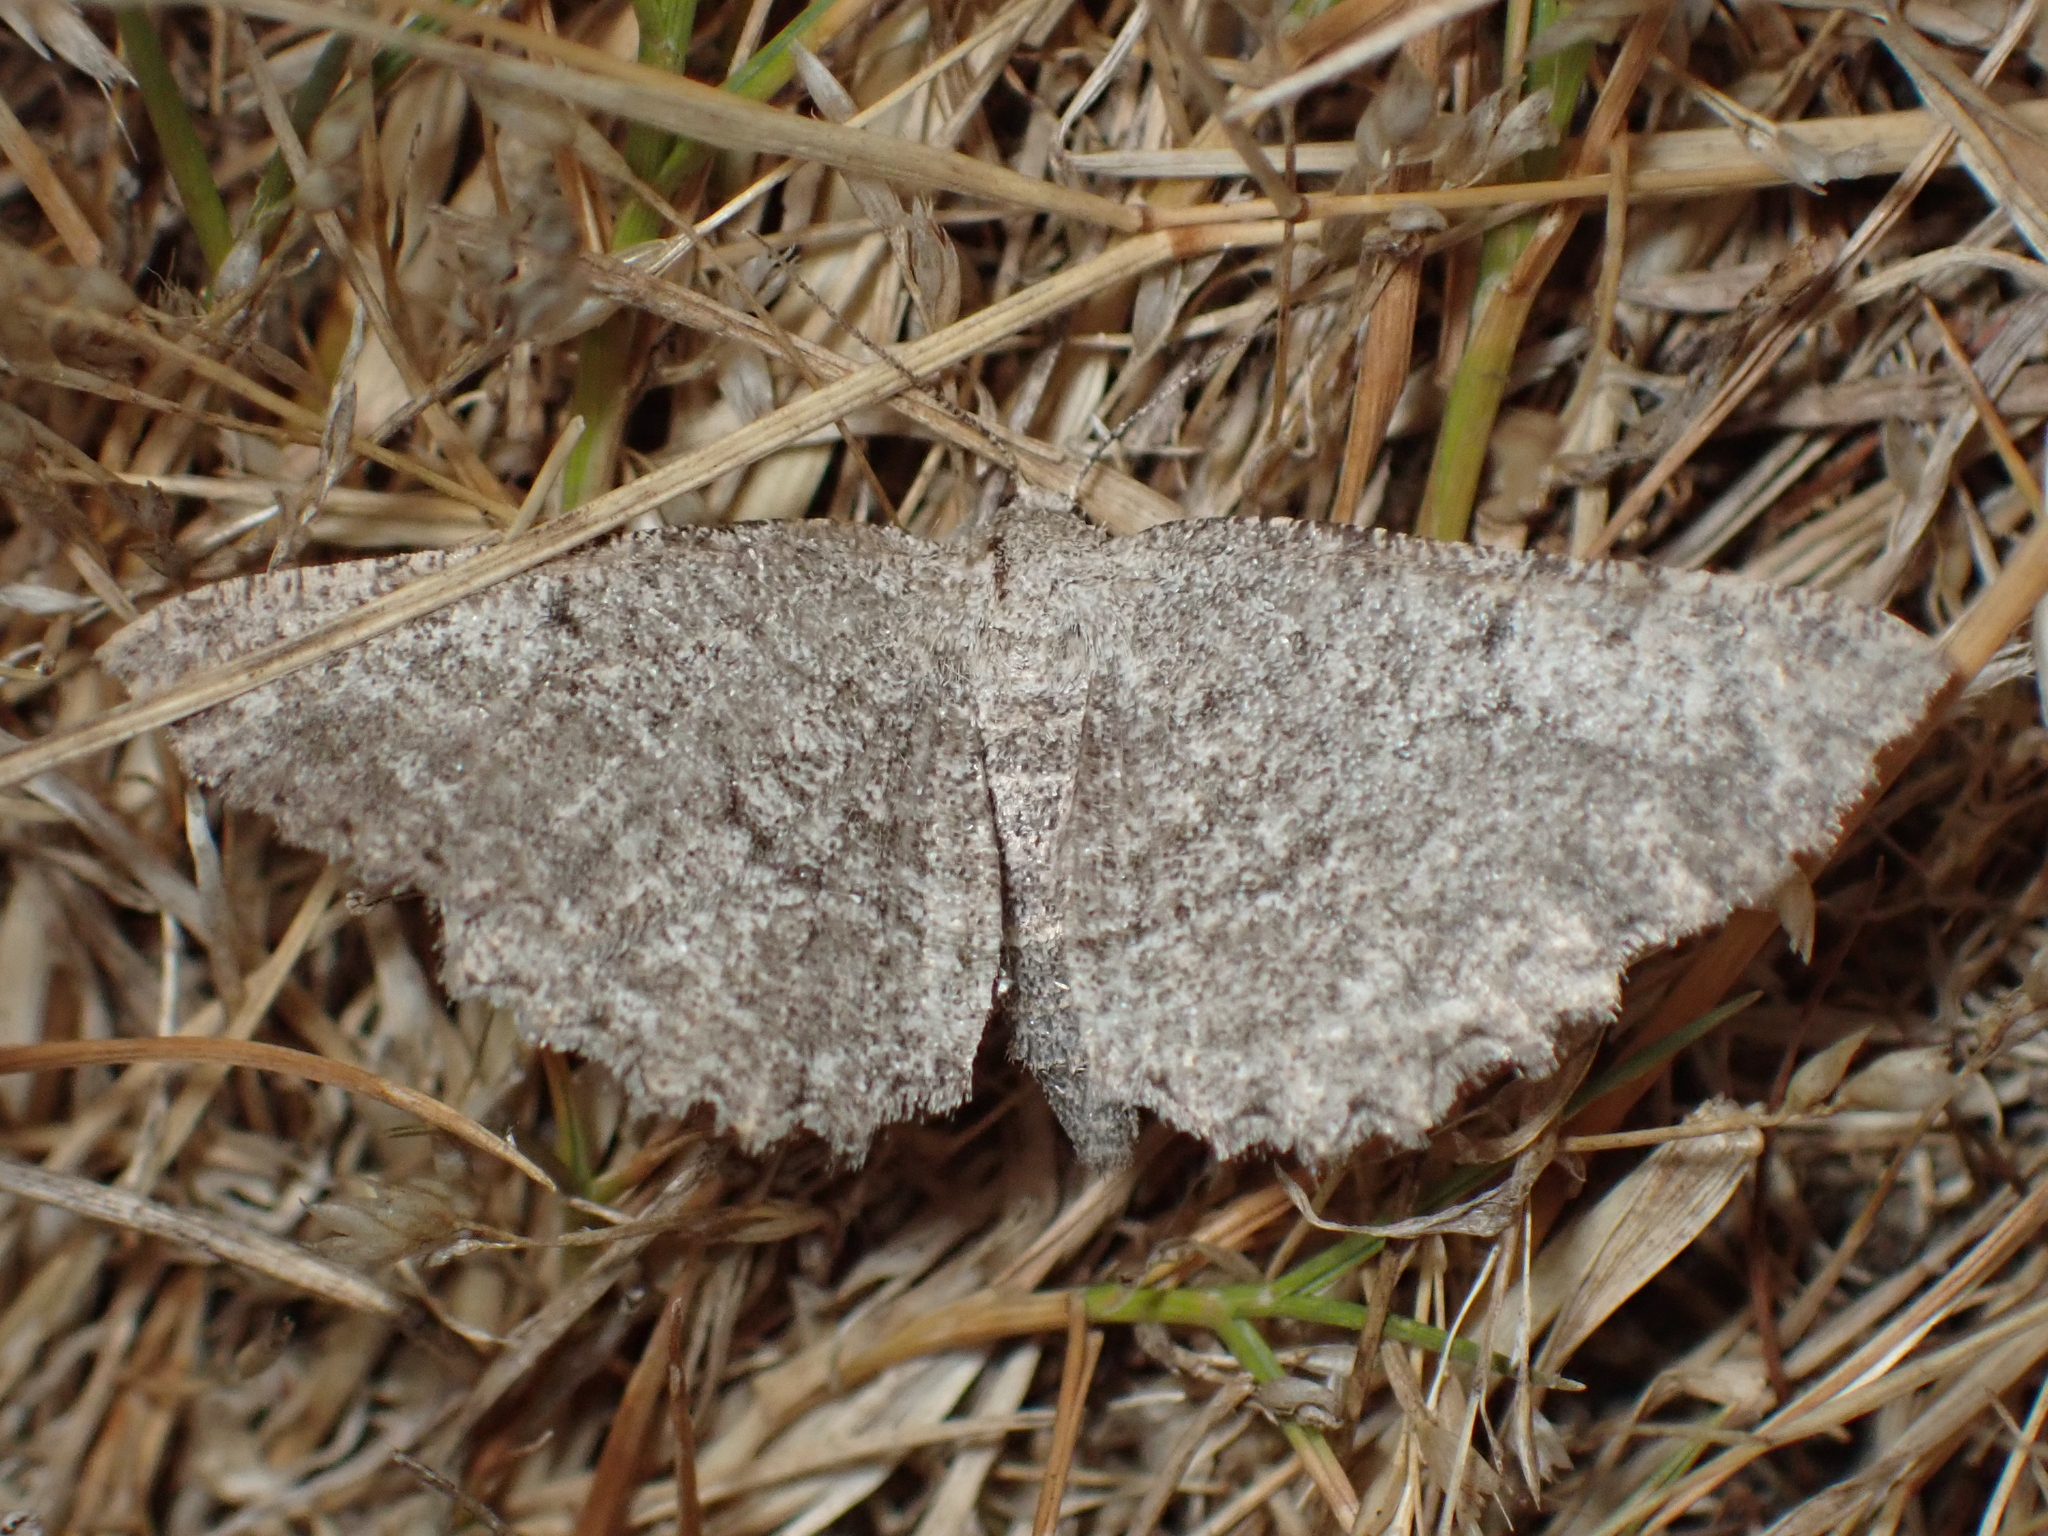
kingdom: Animalia
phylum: Arthropoda
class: Insecta
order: Lepidoptera
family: Geometridae
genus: Hesperumia
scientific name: Hesperumia latipennis
